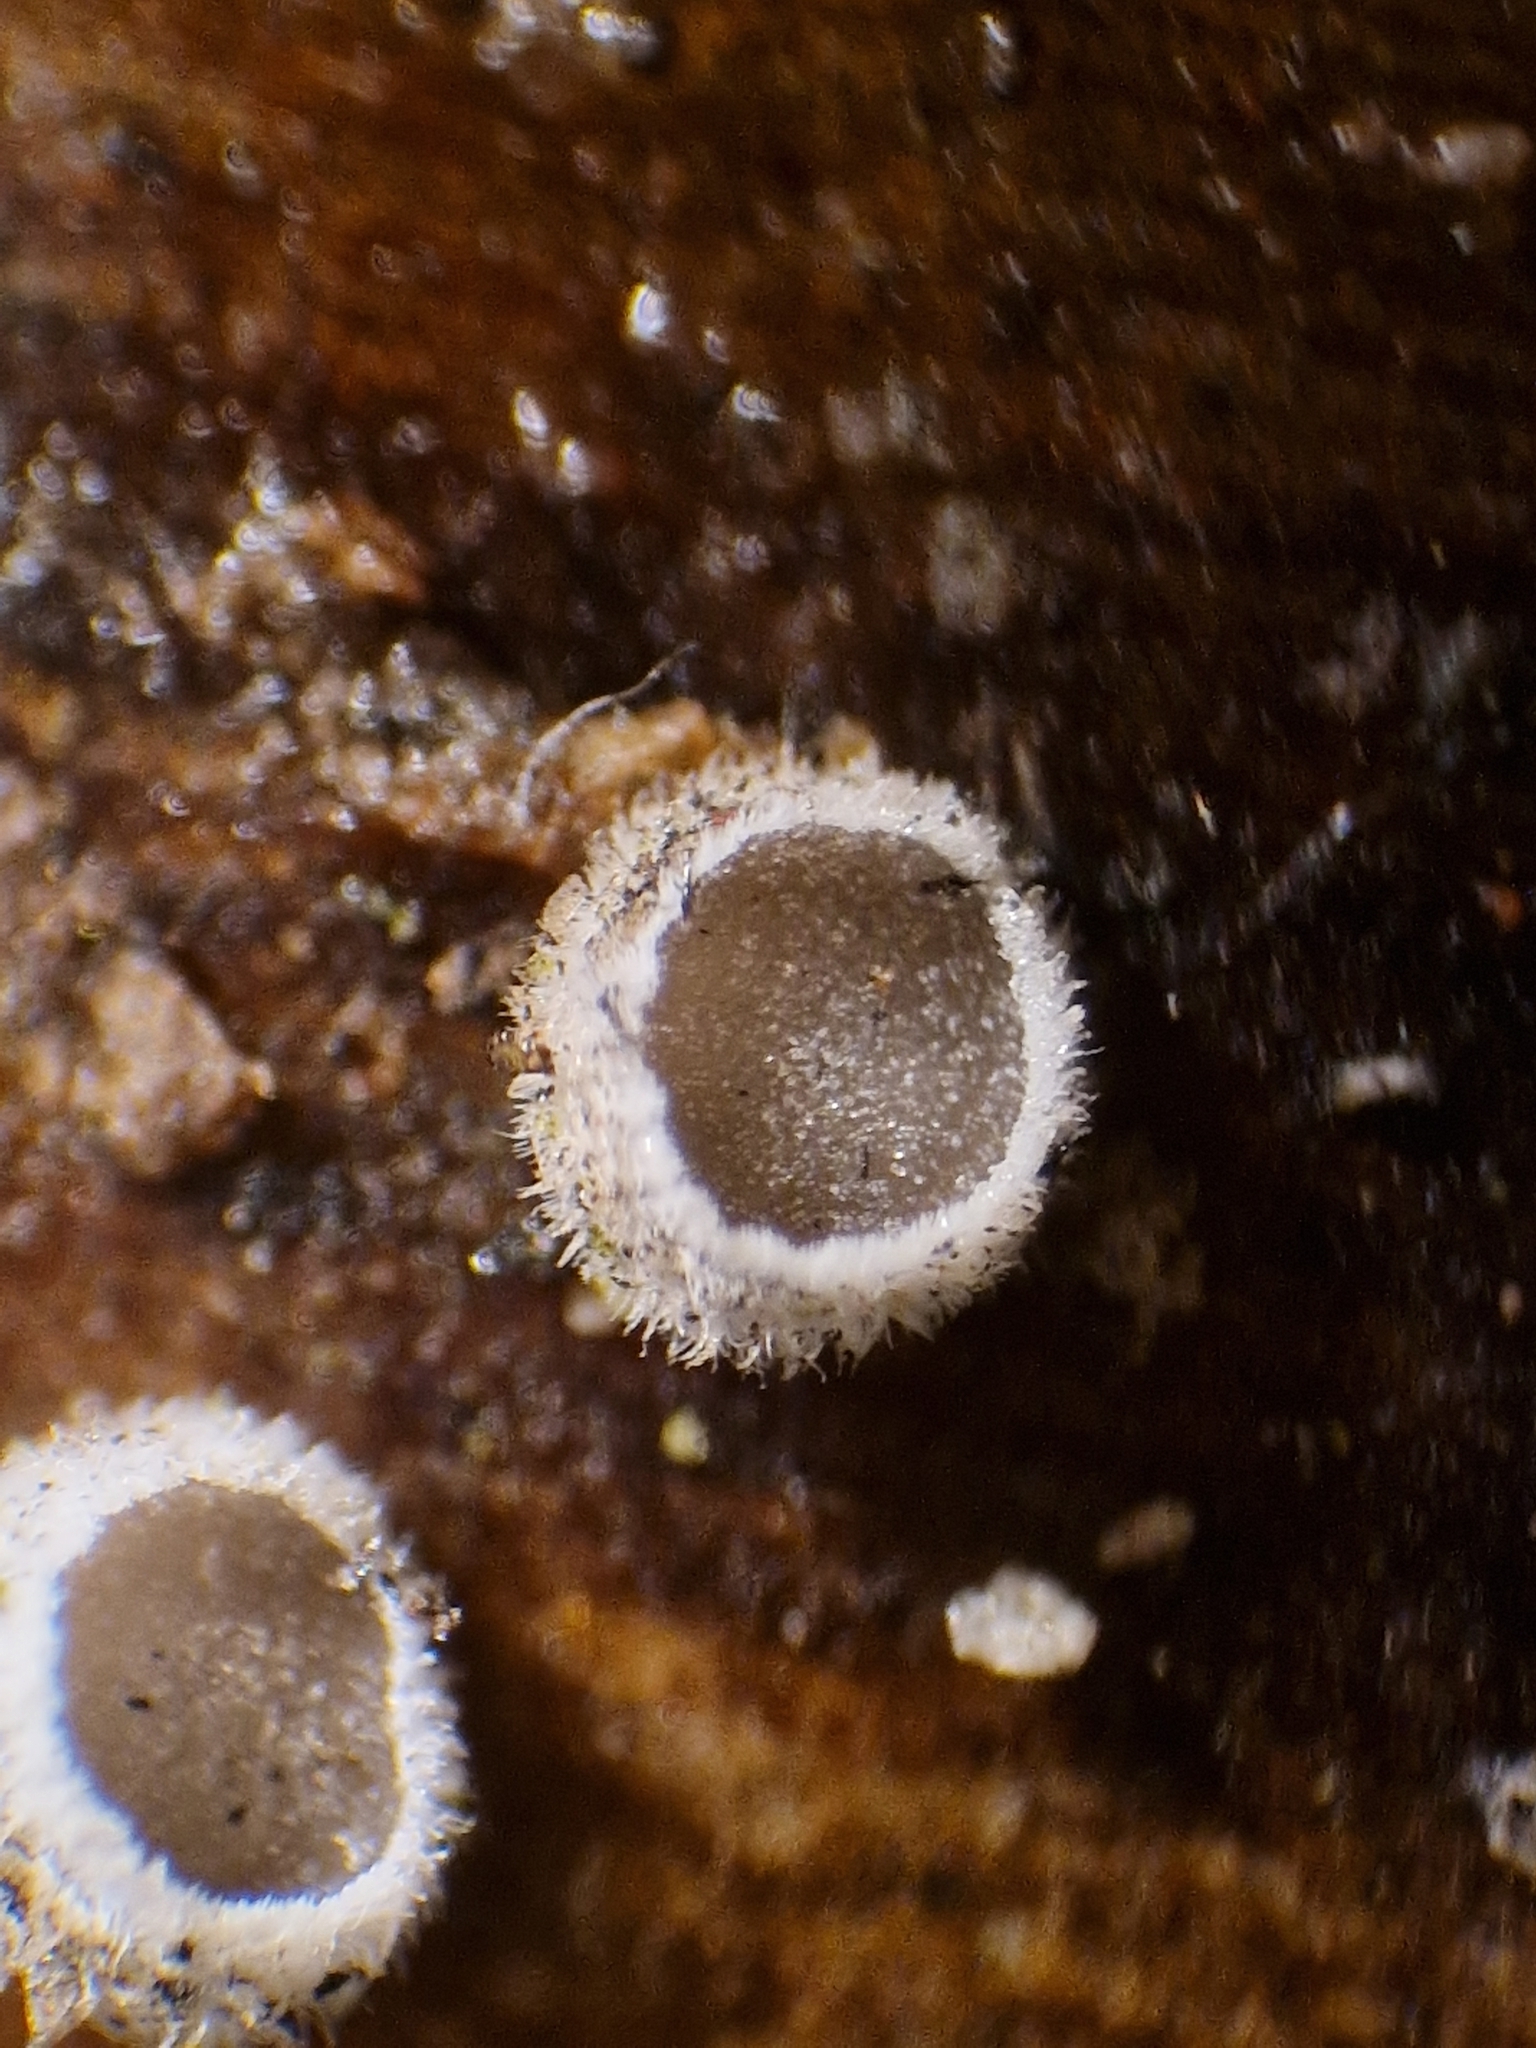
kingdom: Fungi
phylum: Basidiomycota
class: Agaricomycetes
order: Agaricales
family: Niaceae
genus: Lachnella
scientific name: Lachnella alboviolascens
